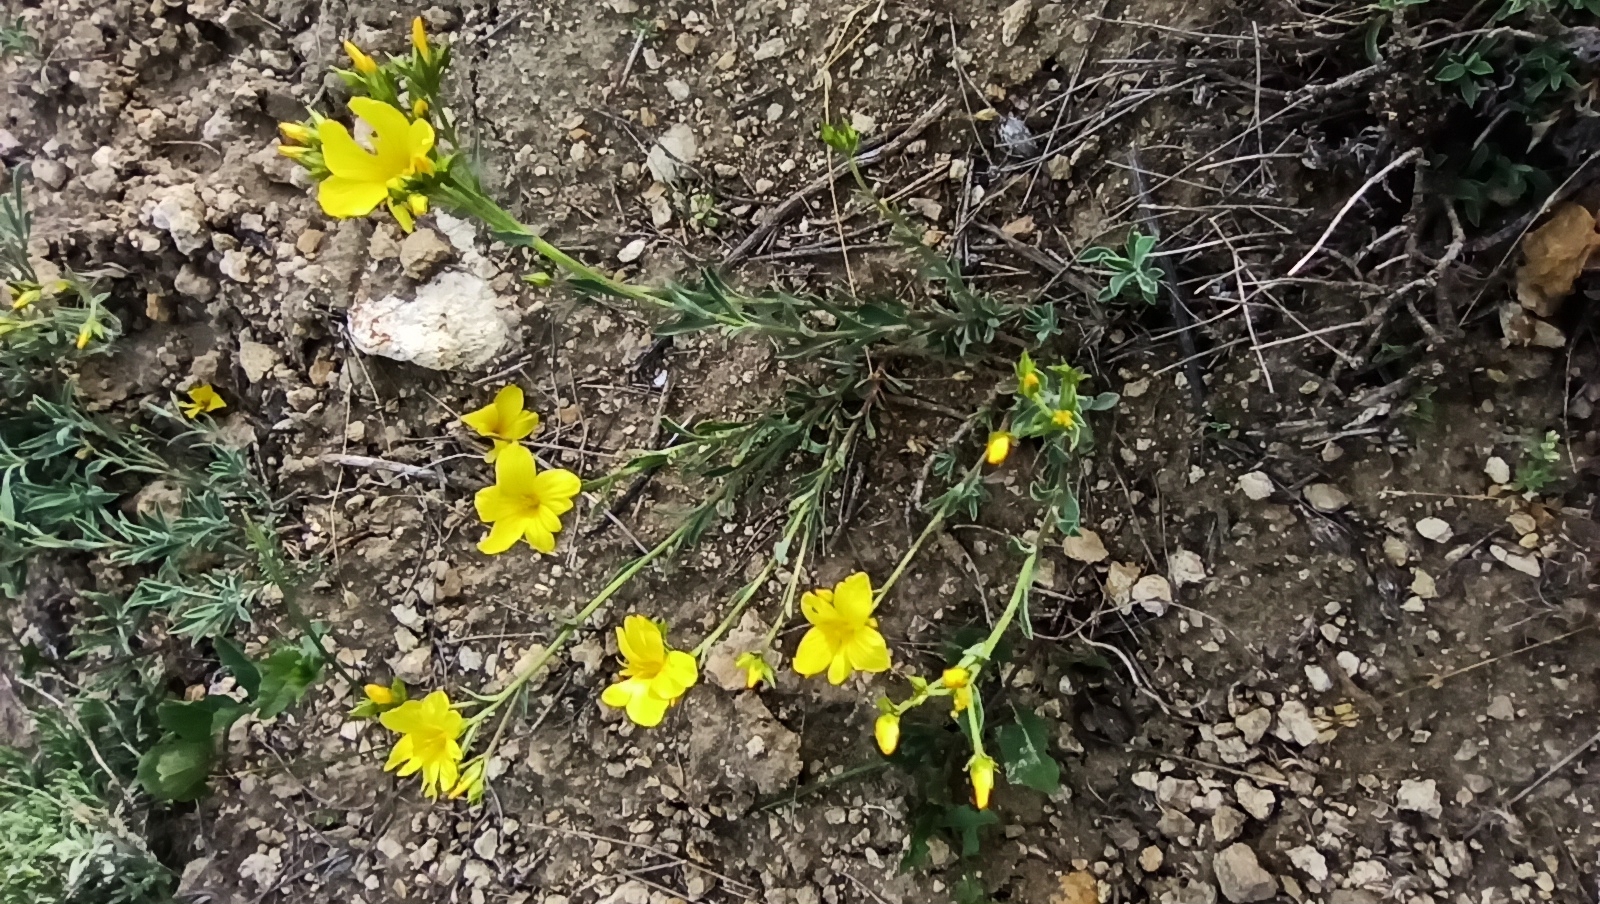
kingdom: Plantae
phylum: Tracheophyta
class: Magnoliopsida
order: Malpighiales
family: Linaceae
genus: Linum
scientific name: Linum ucranicum
